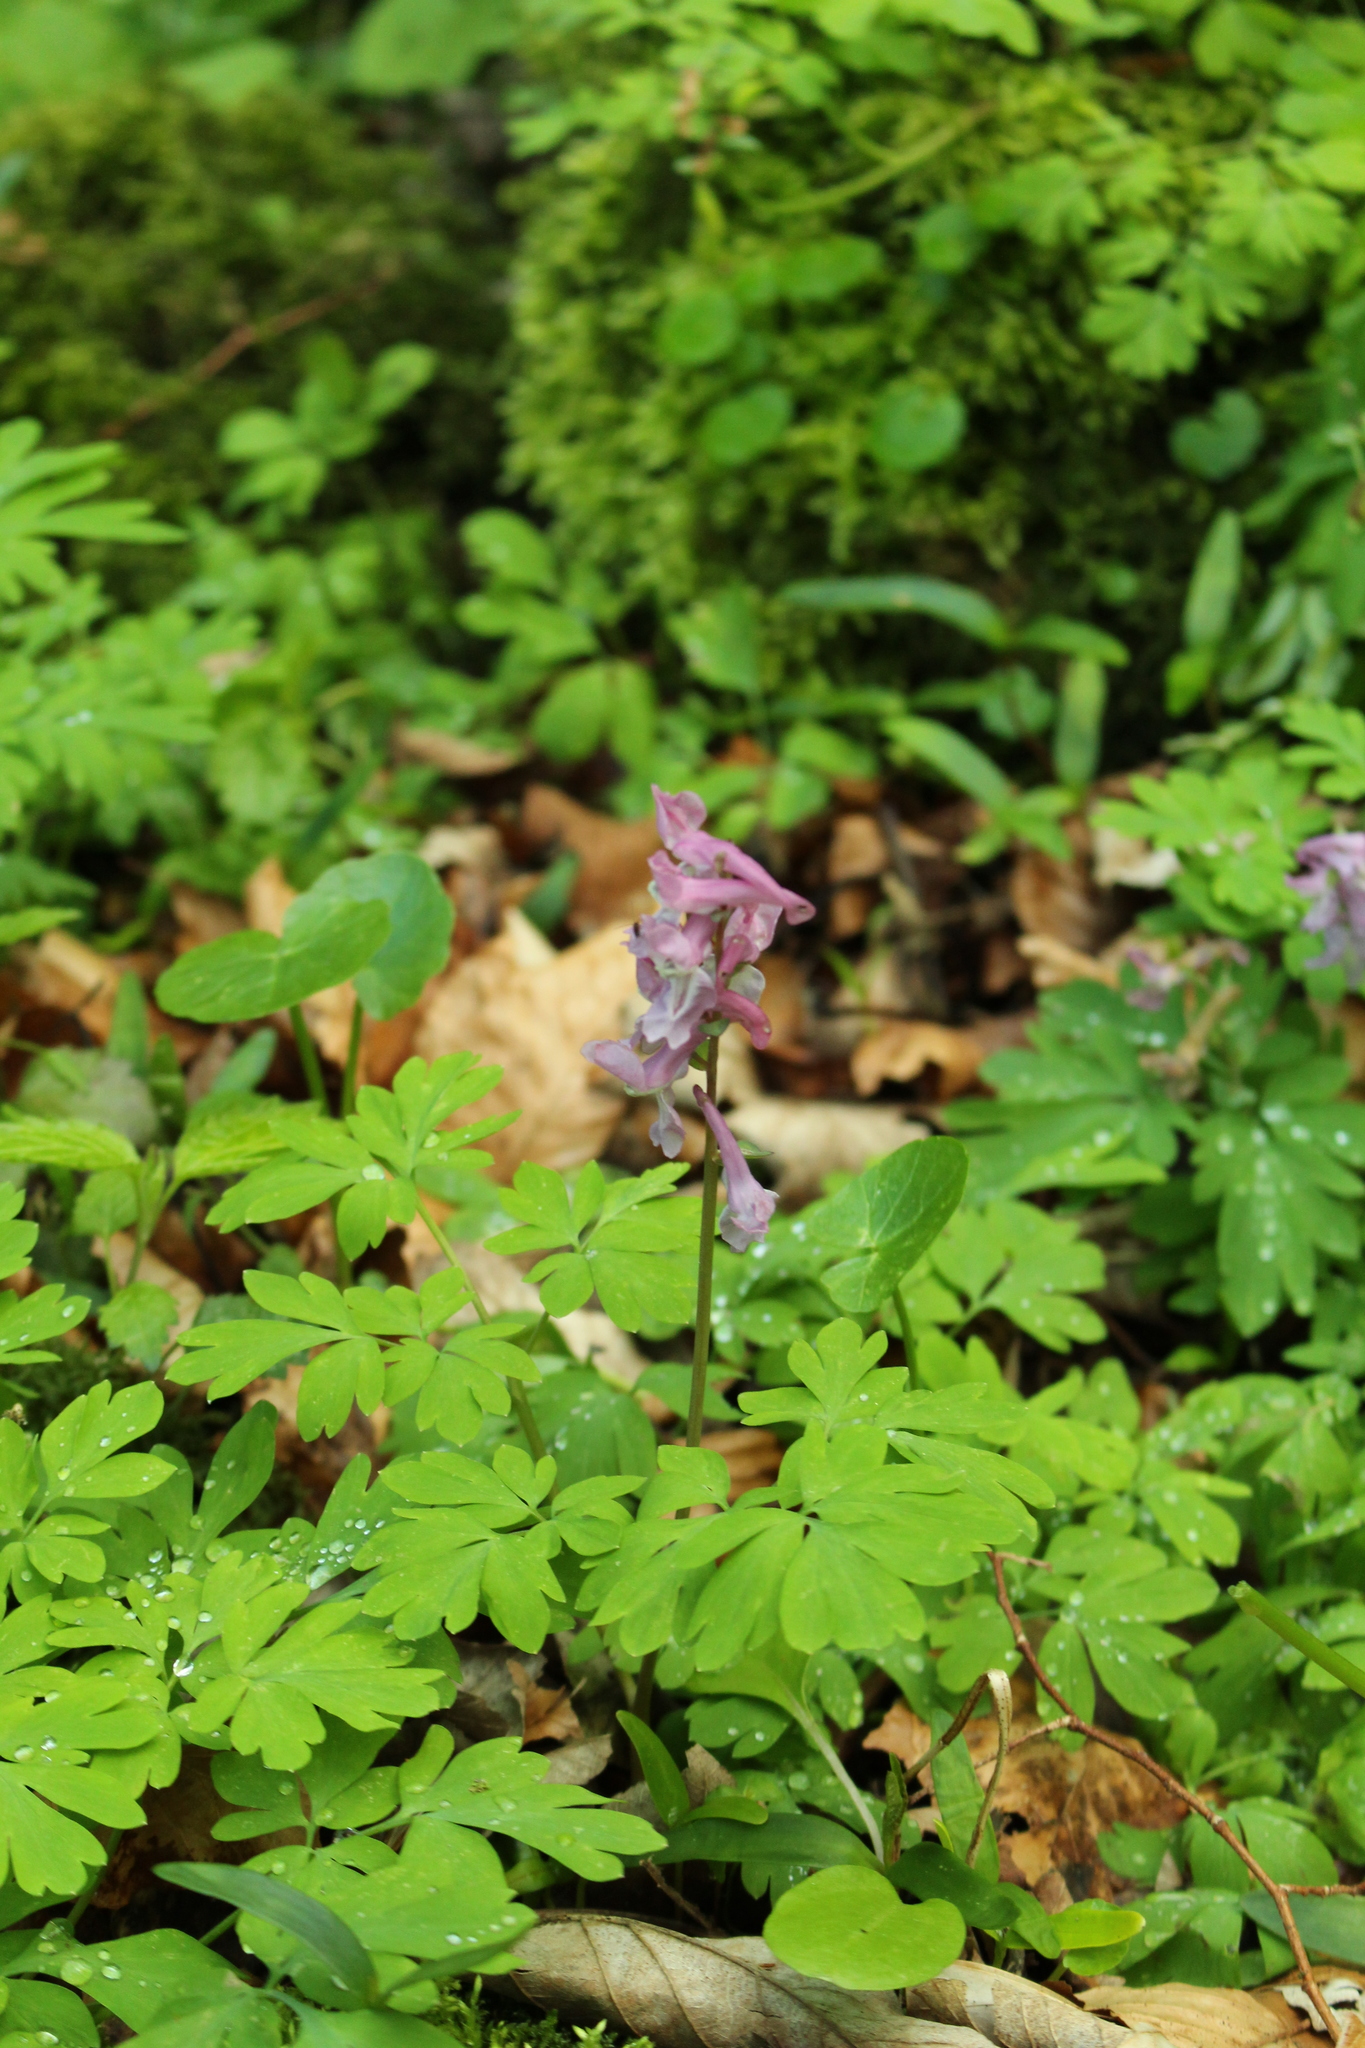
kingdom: Plantae
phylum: Tracheophyta
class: Magnoliopsida
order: Ranunculales
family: Papaveraceae
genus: Corydalis
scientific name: Corydalis cava
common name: Hollowroot
